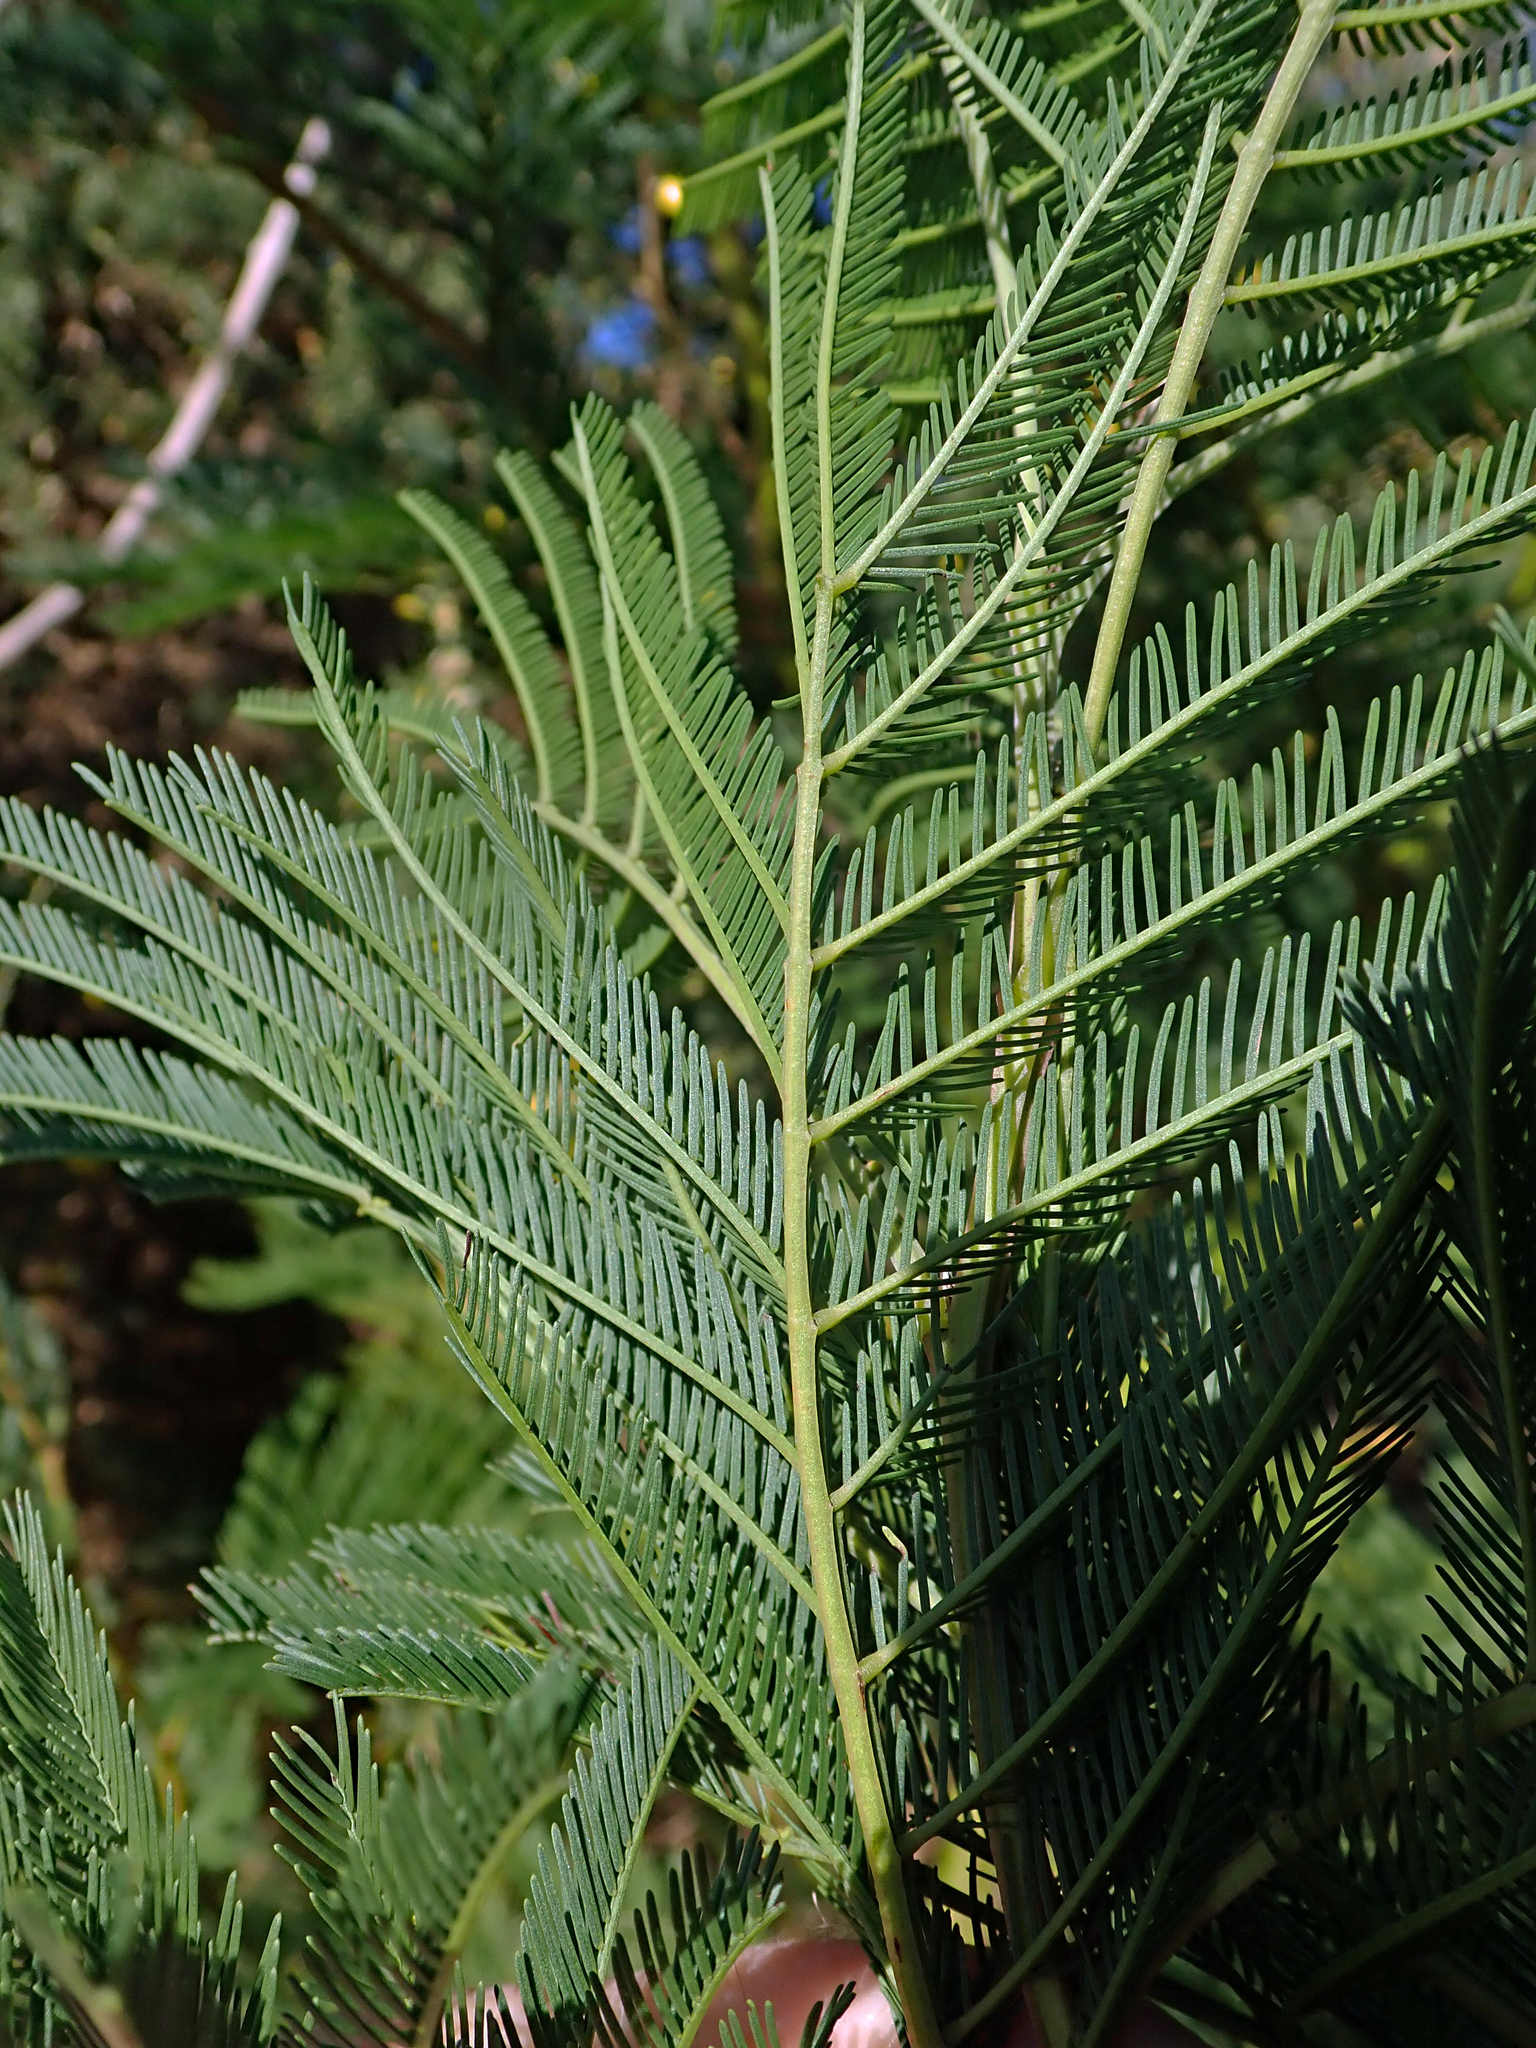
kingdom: Plantae
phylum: Tracheophyta
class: Magnoliopsida
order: Fabales
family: Fabaceae
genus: Acacia
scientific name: Acacia decurrens
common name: Green wattle
